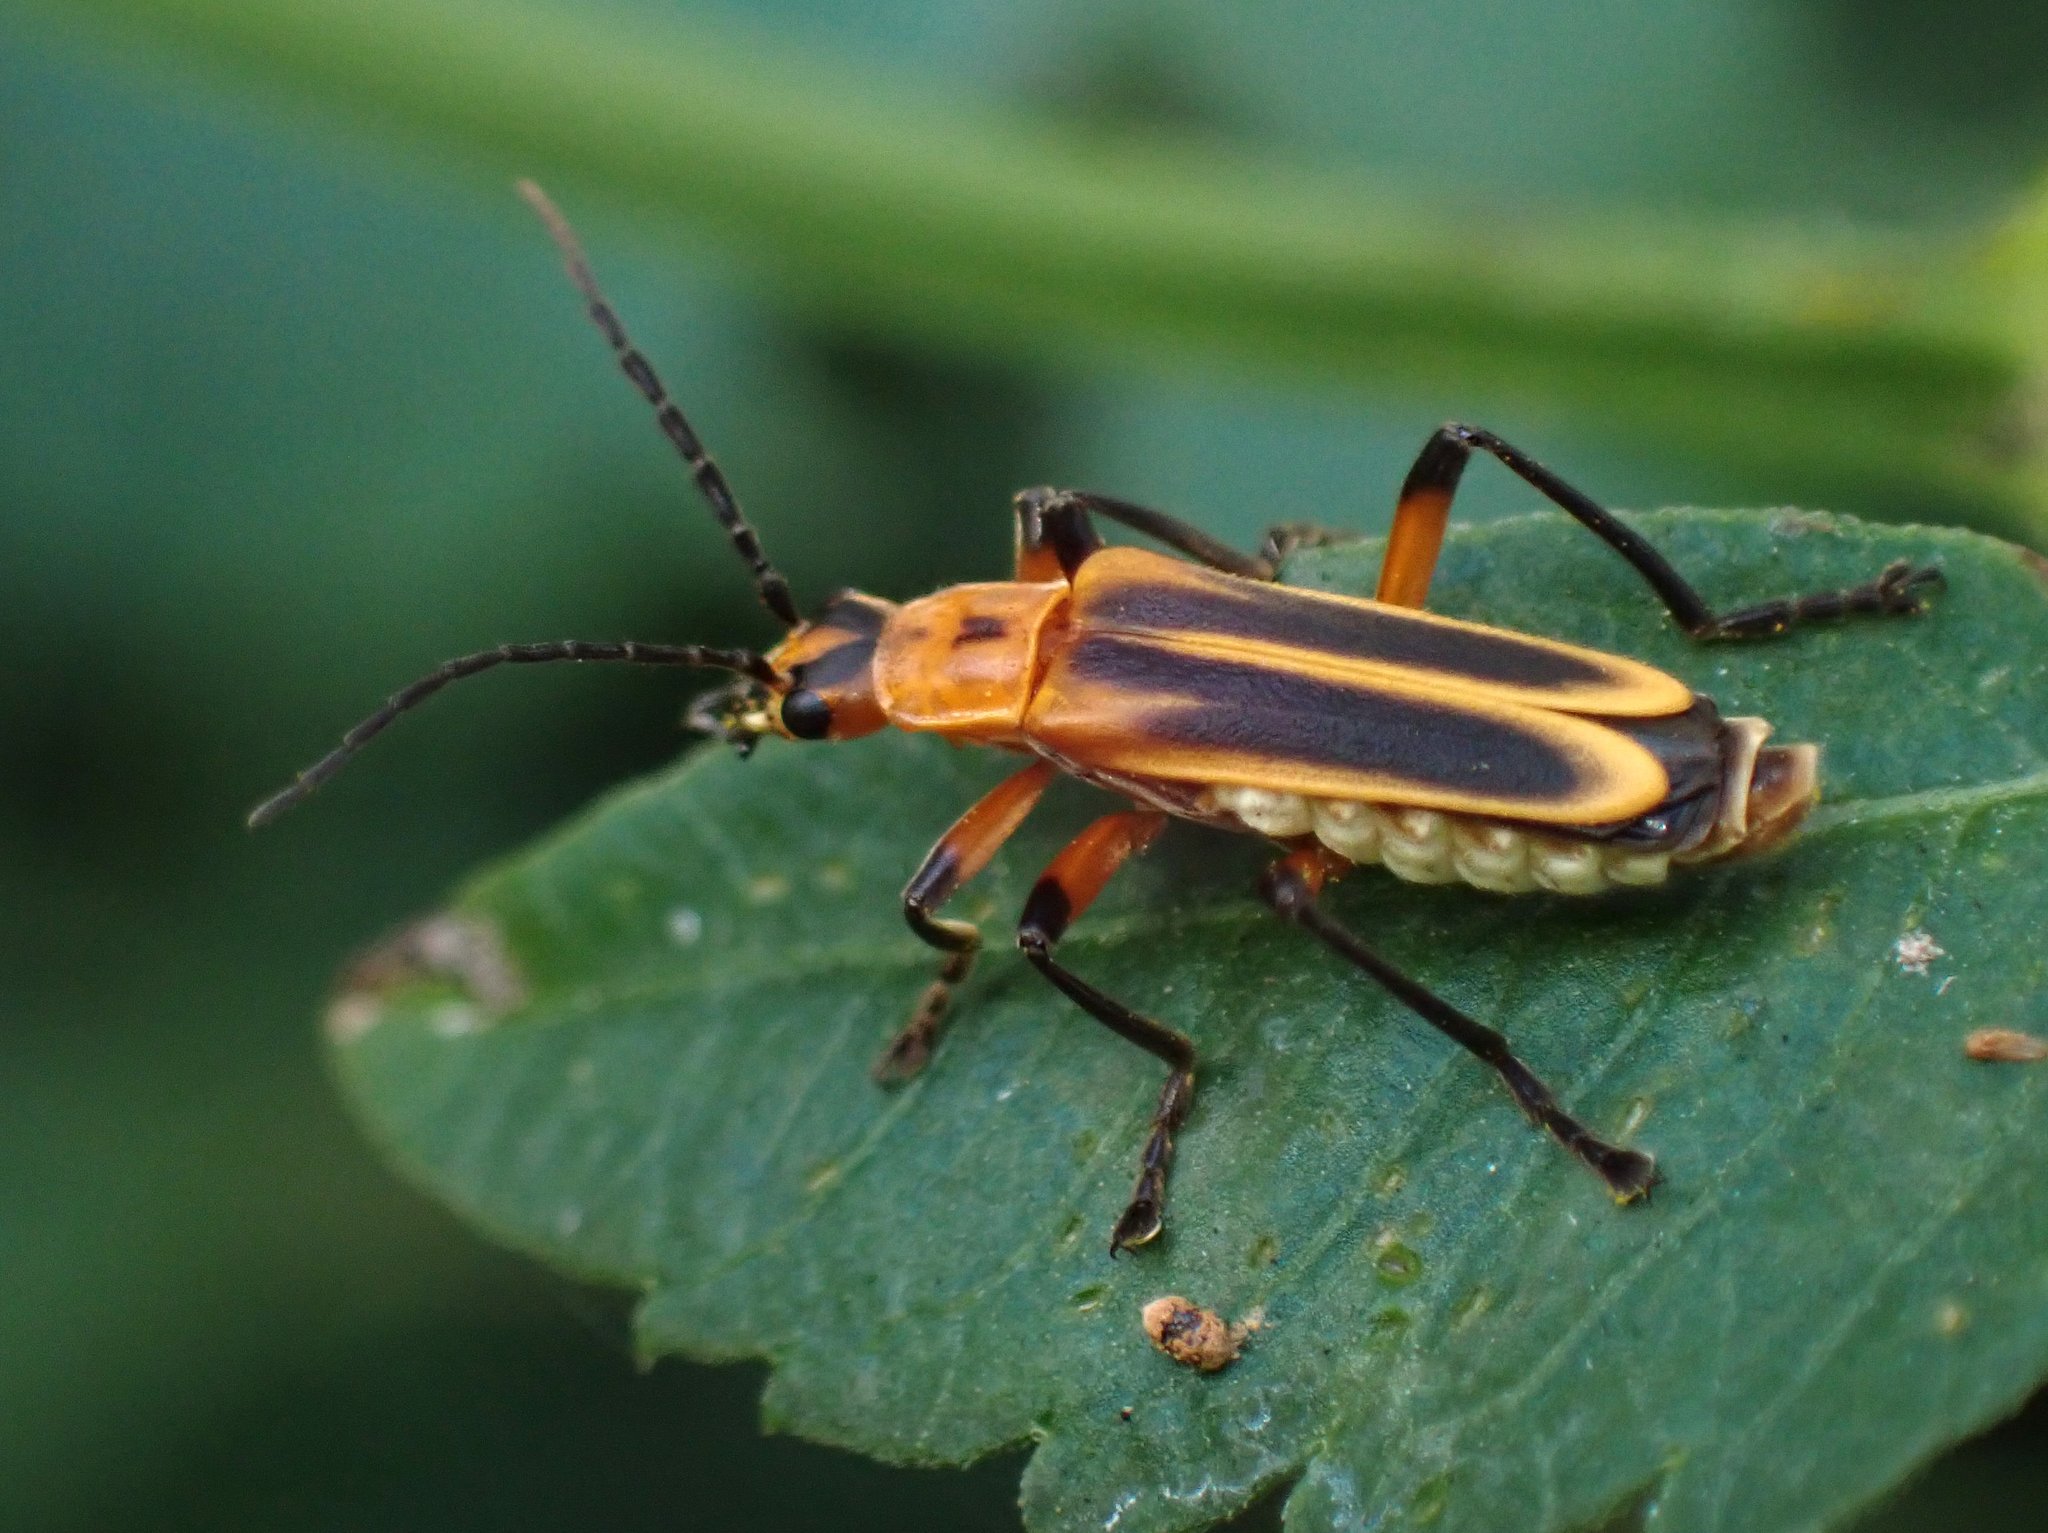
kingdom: Animalia
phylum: Arthropoda
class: Insecta
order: Coleoptera
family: Cantharidae
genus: Chauliognathus
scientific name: Chauliognathus marginatus
